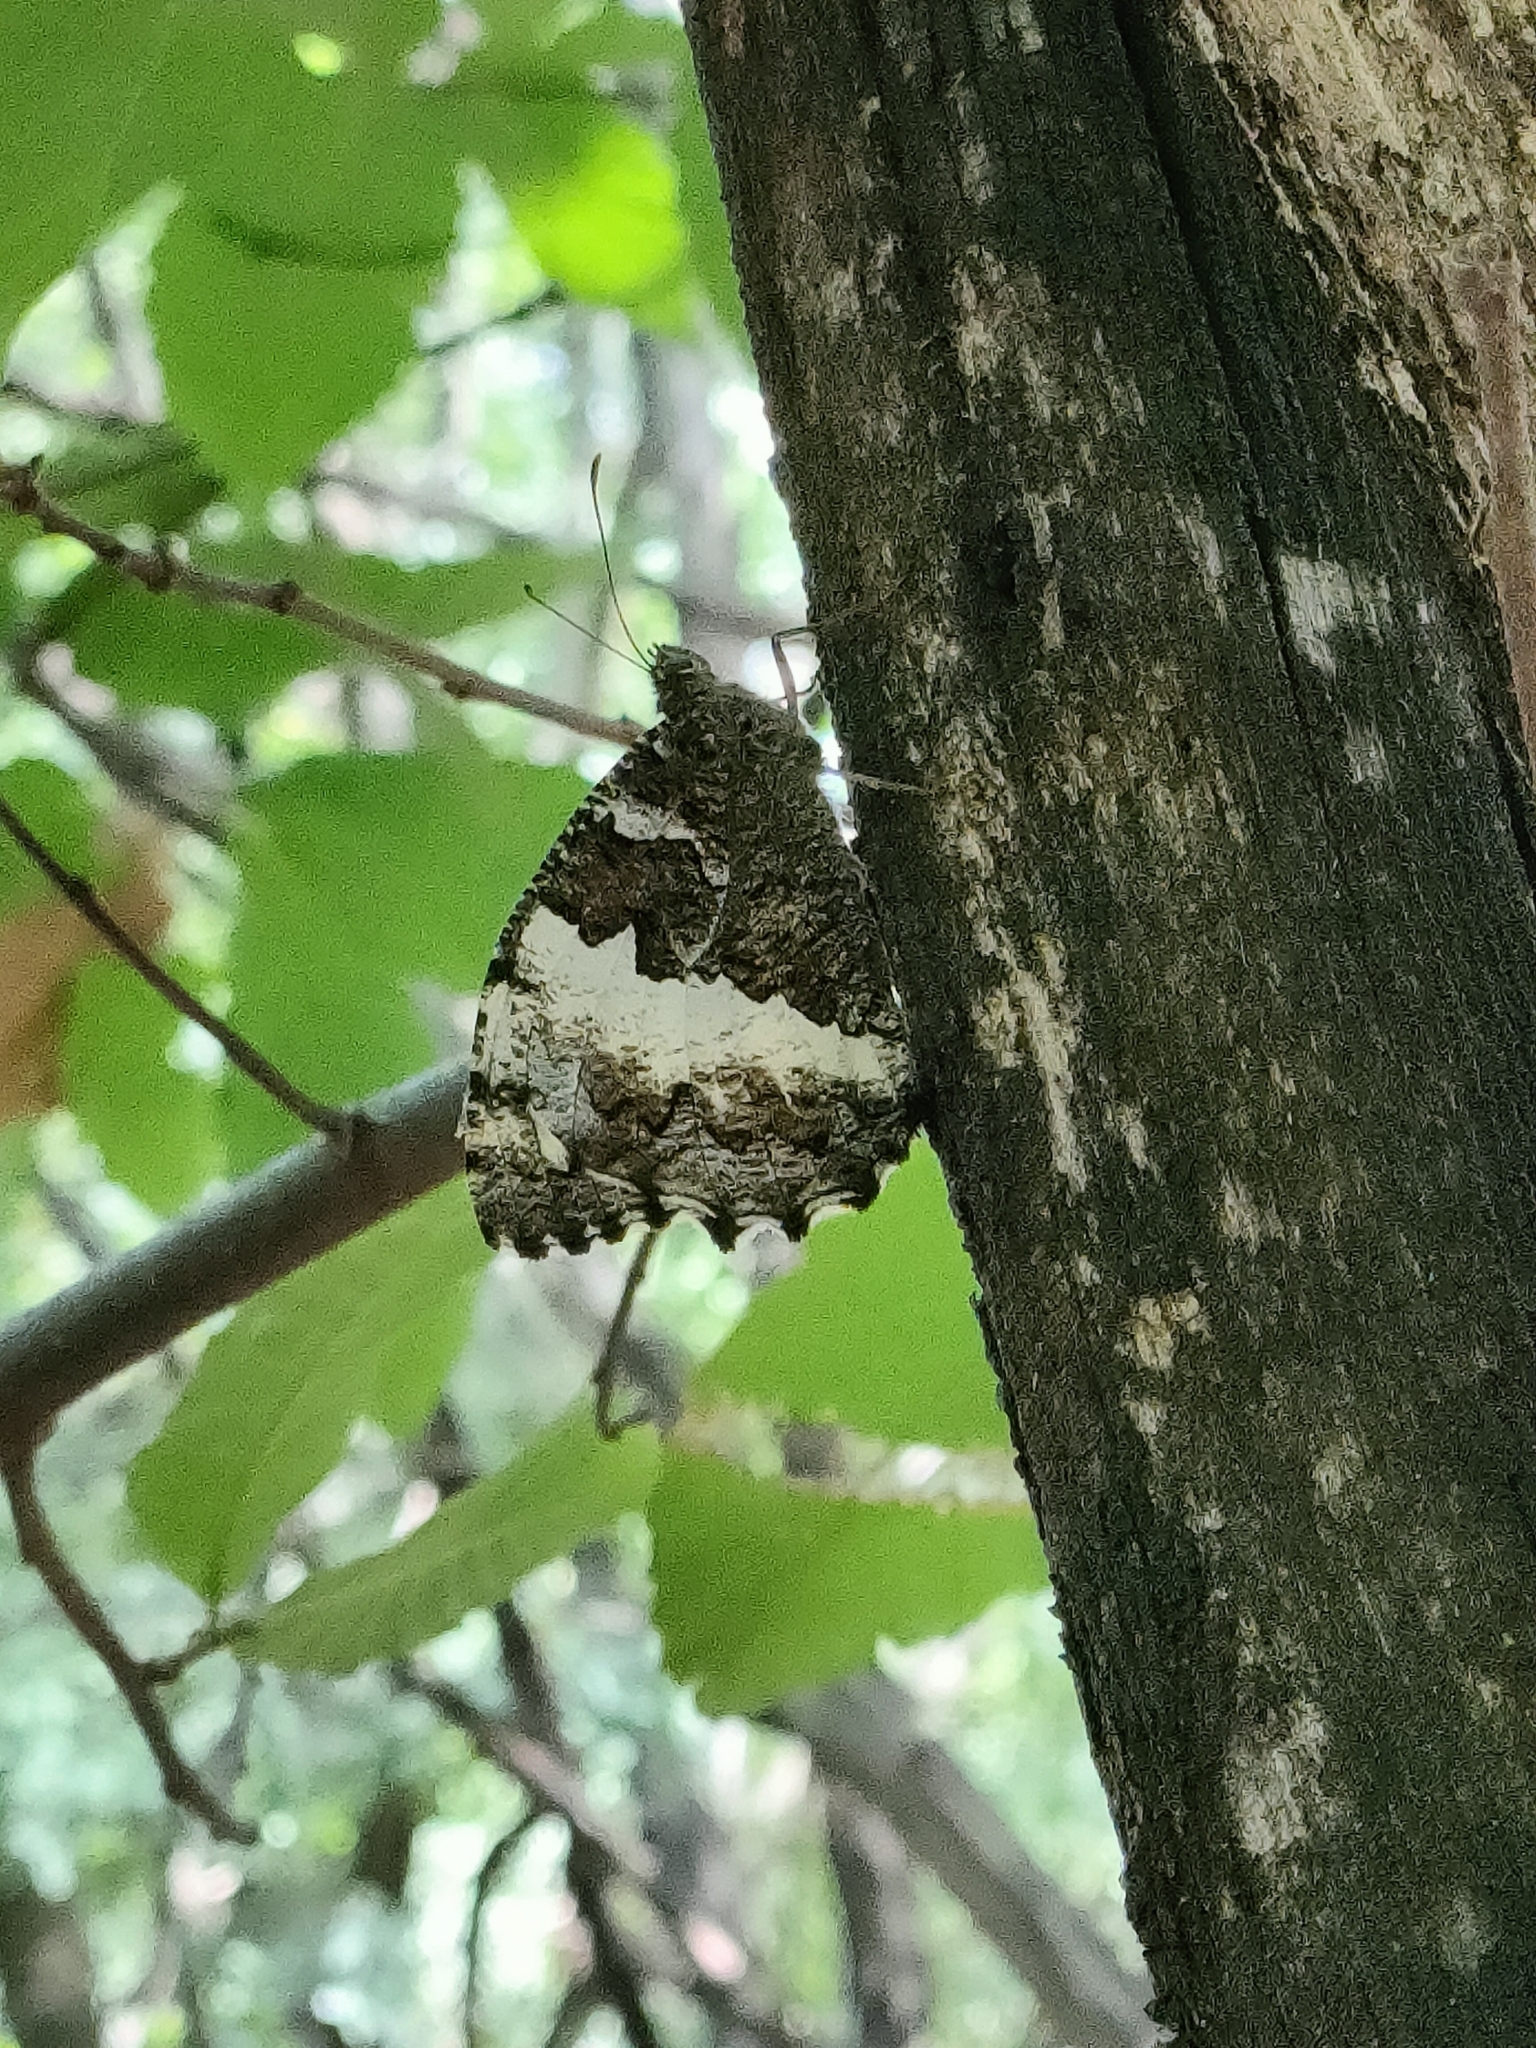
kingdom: Animalia
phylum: Arthropoda
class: Insecta
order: Lepidoptera
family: Lycaenidae
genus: Loweia
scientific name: Loweia tityrus
